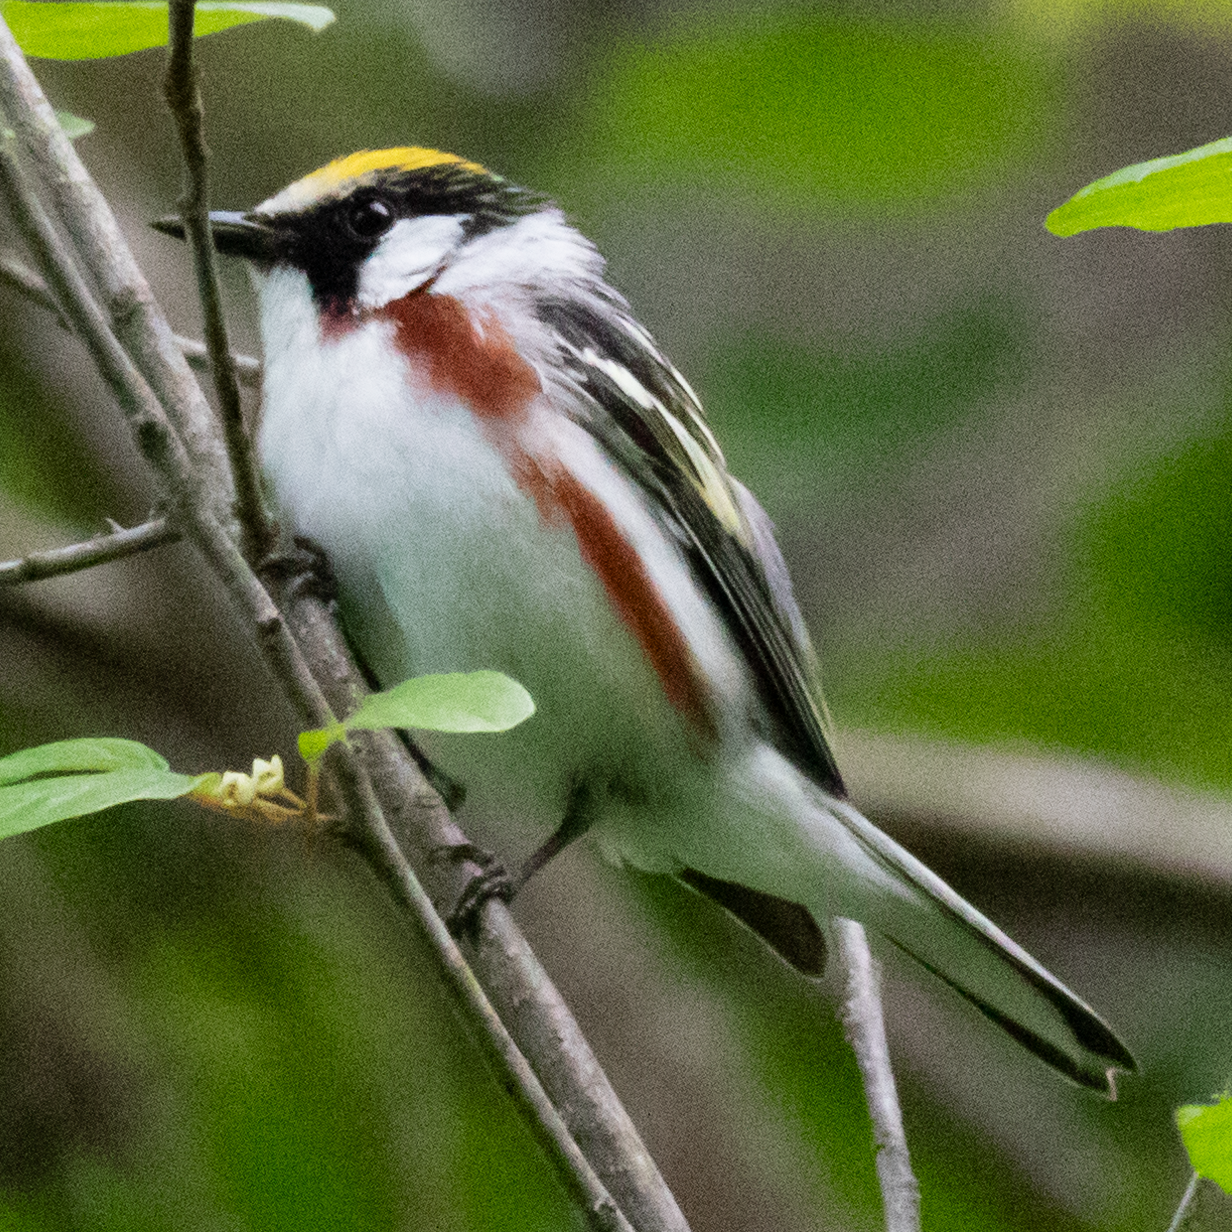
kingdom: Animalia
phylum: Chordata
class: Aves
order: Passeriformes
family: Parulidae
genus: Setophaga
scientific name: Setophaga pensylvanica
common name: Chestnut-sided warbler
